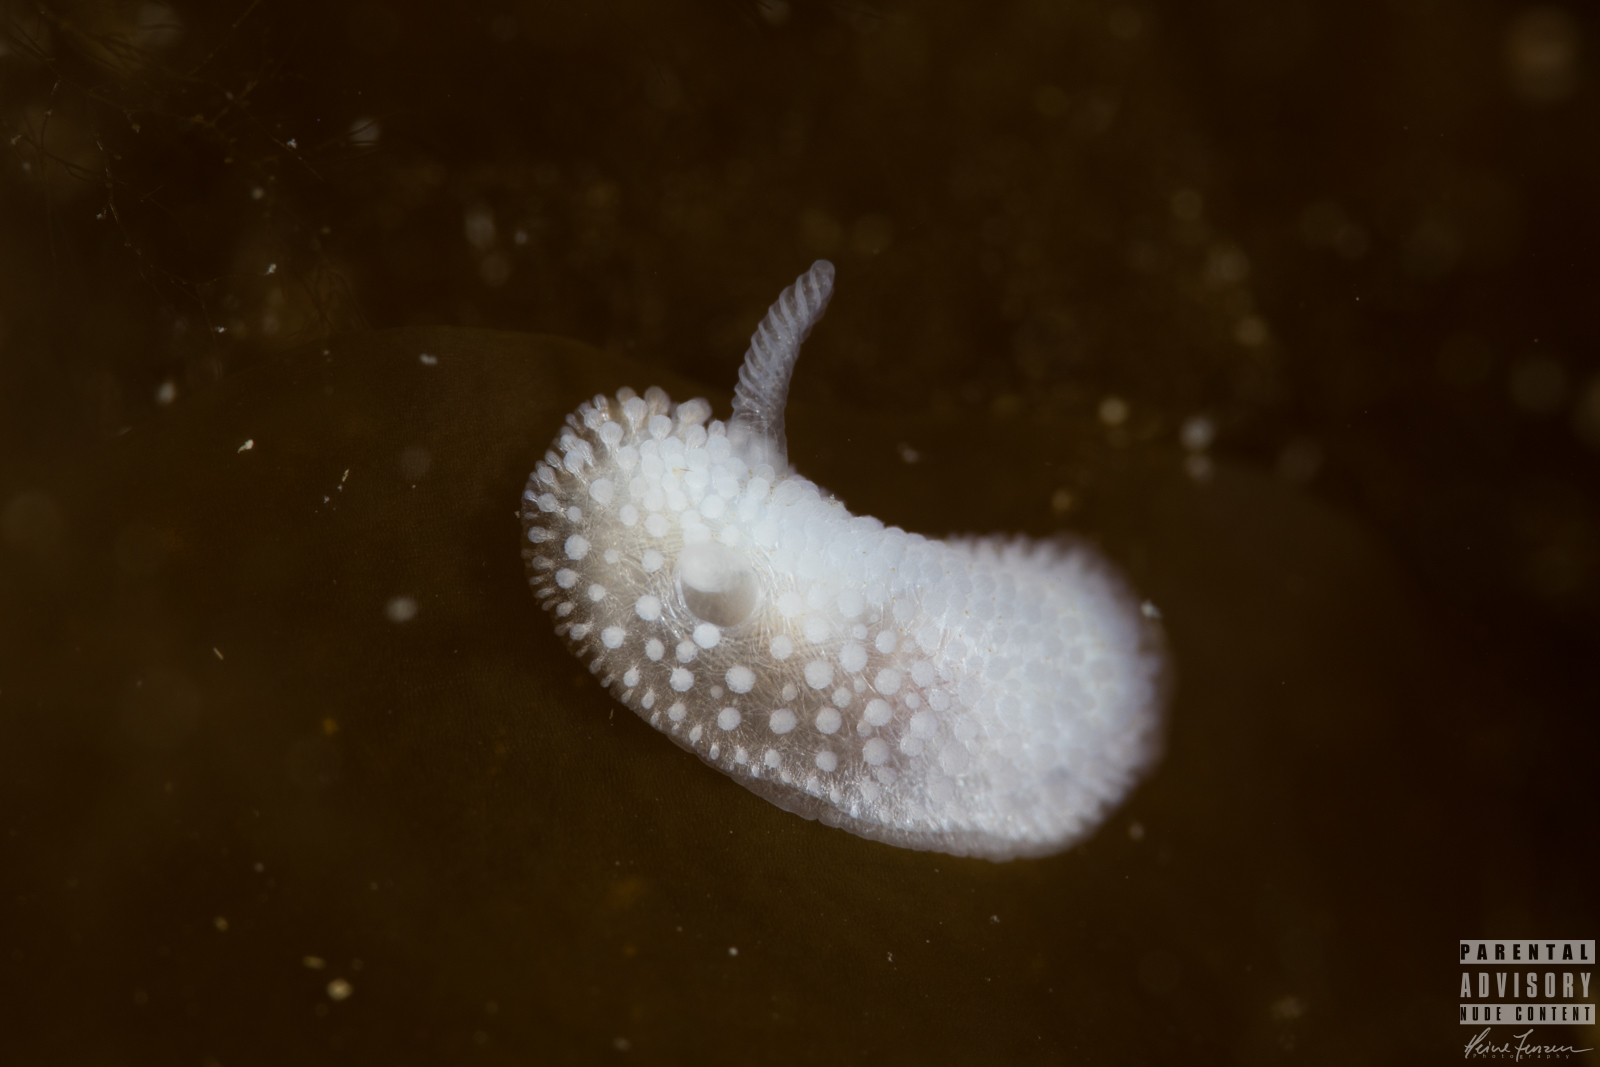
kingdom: Animalia
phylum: Mollusca
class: Gastropoda
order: Nudibranchia
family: Onchidorididae
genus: Onchidoris
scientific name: Onchidoris muricata
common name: Rough doris
